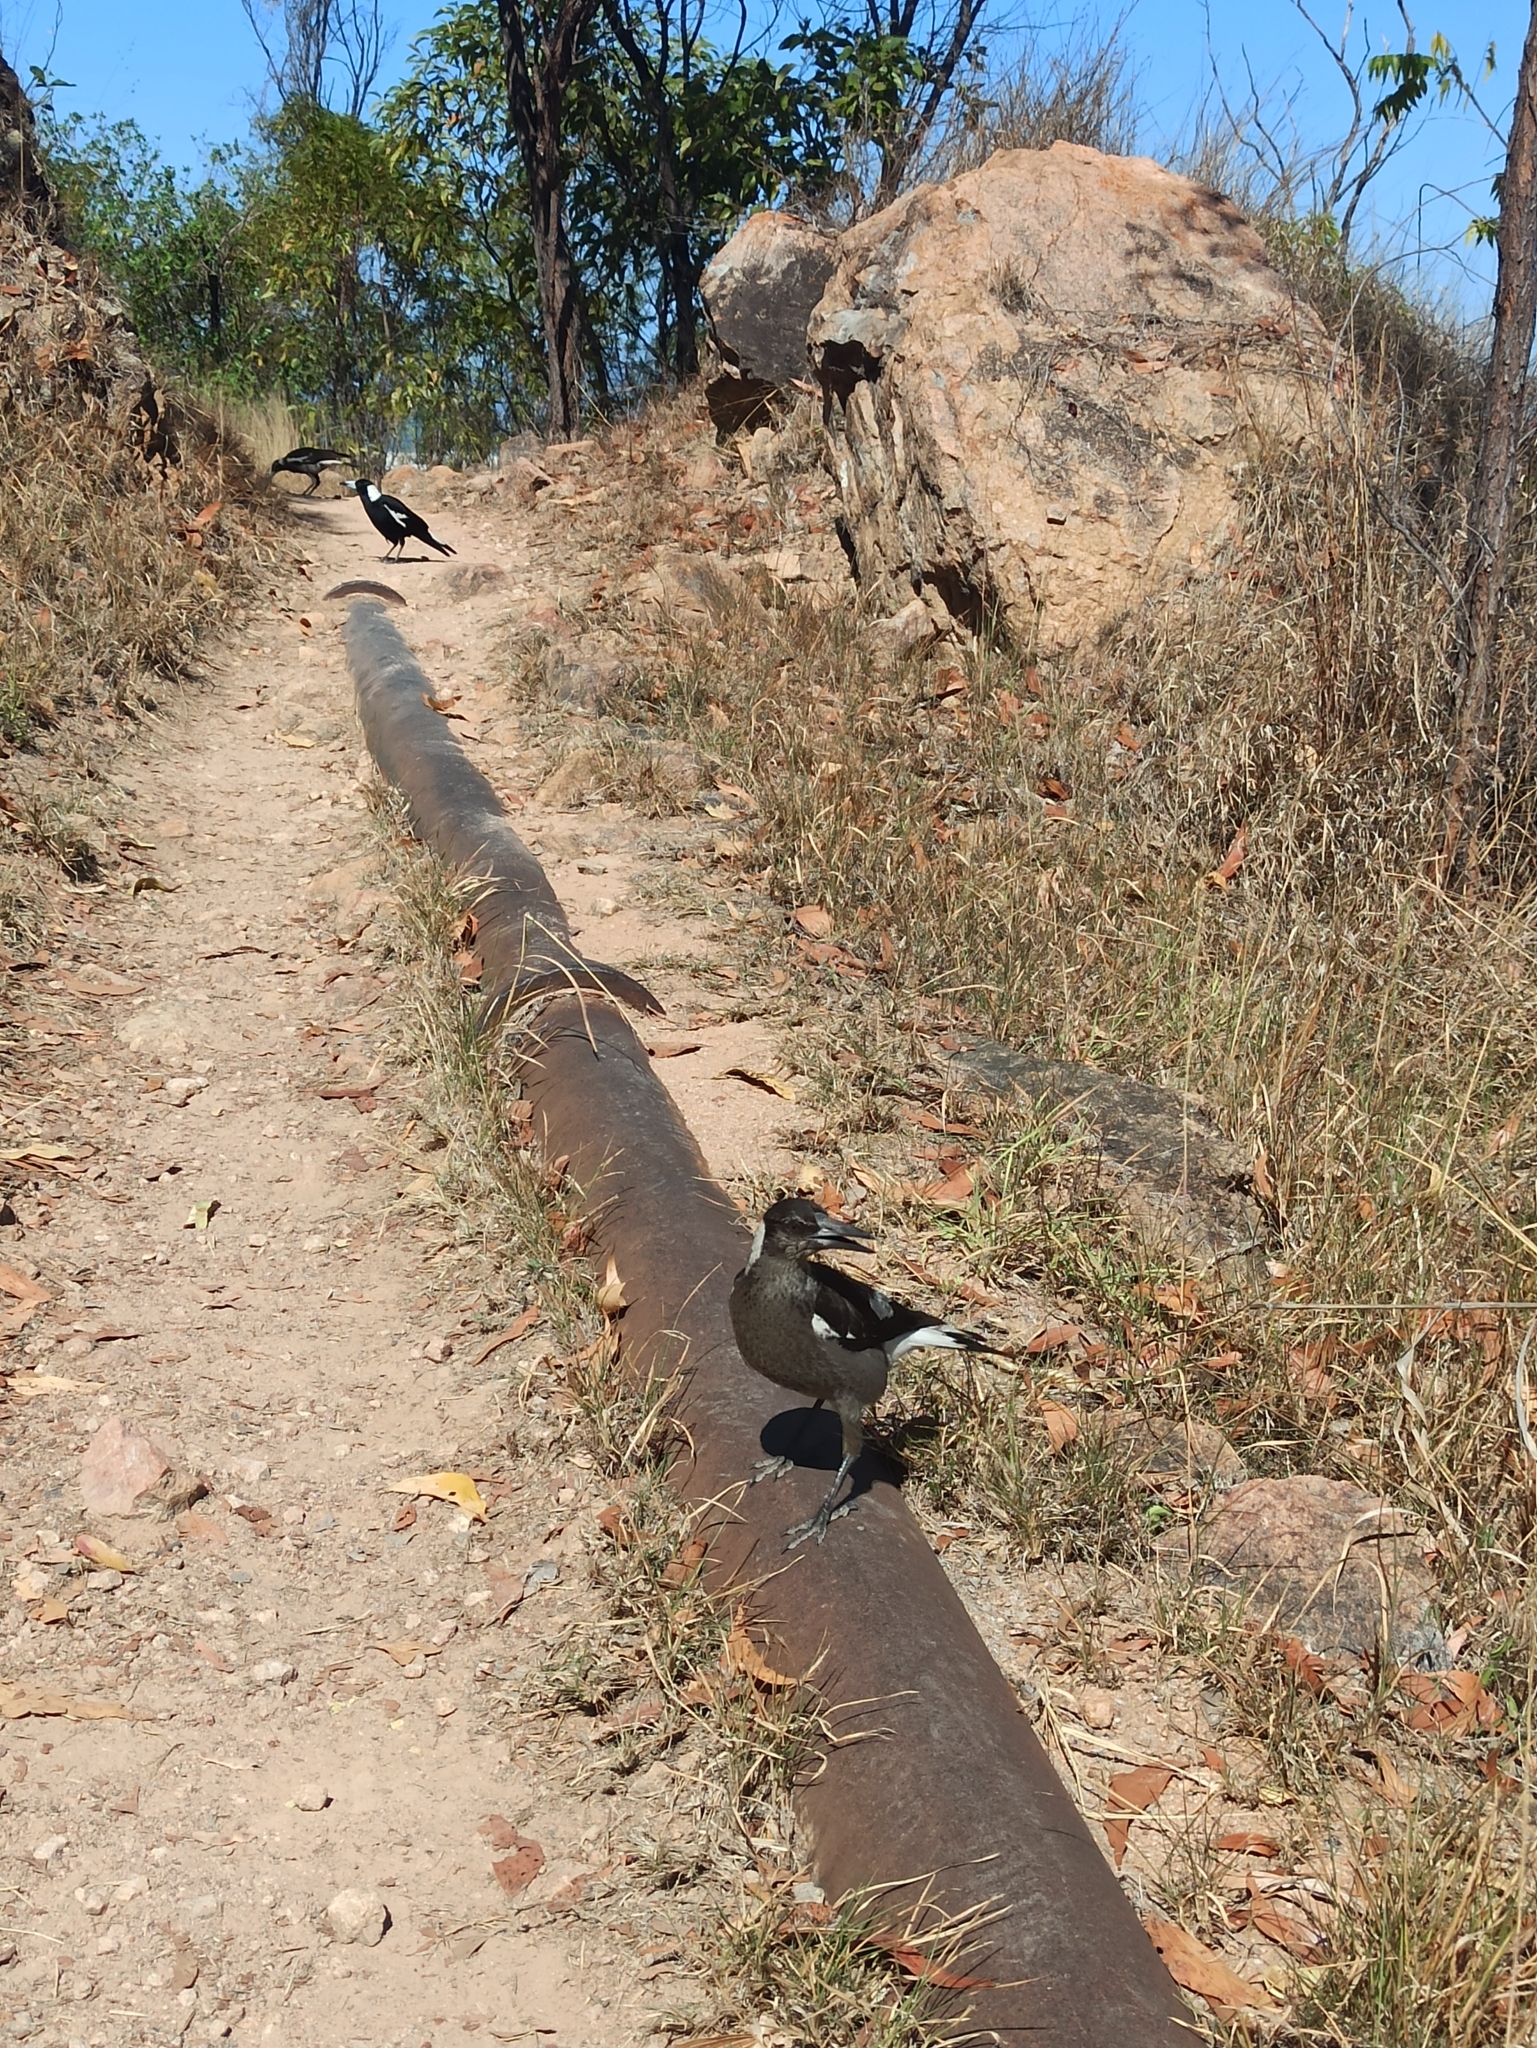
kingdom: Animalia
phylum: Chordata
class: Aves
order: Passeriformes
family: Cracticidae
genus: Gymnorhina
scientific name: Gymnorhina tibicen
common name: Australian magpie
